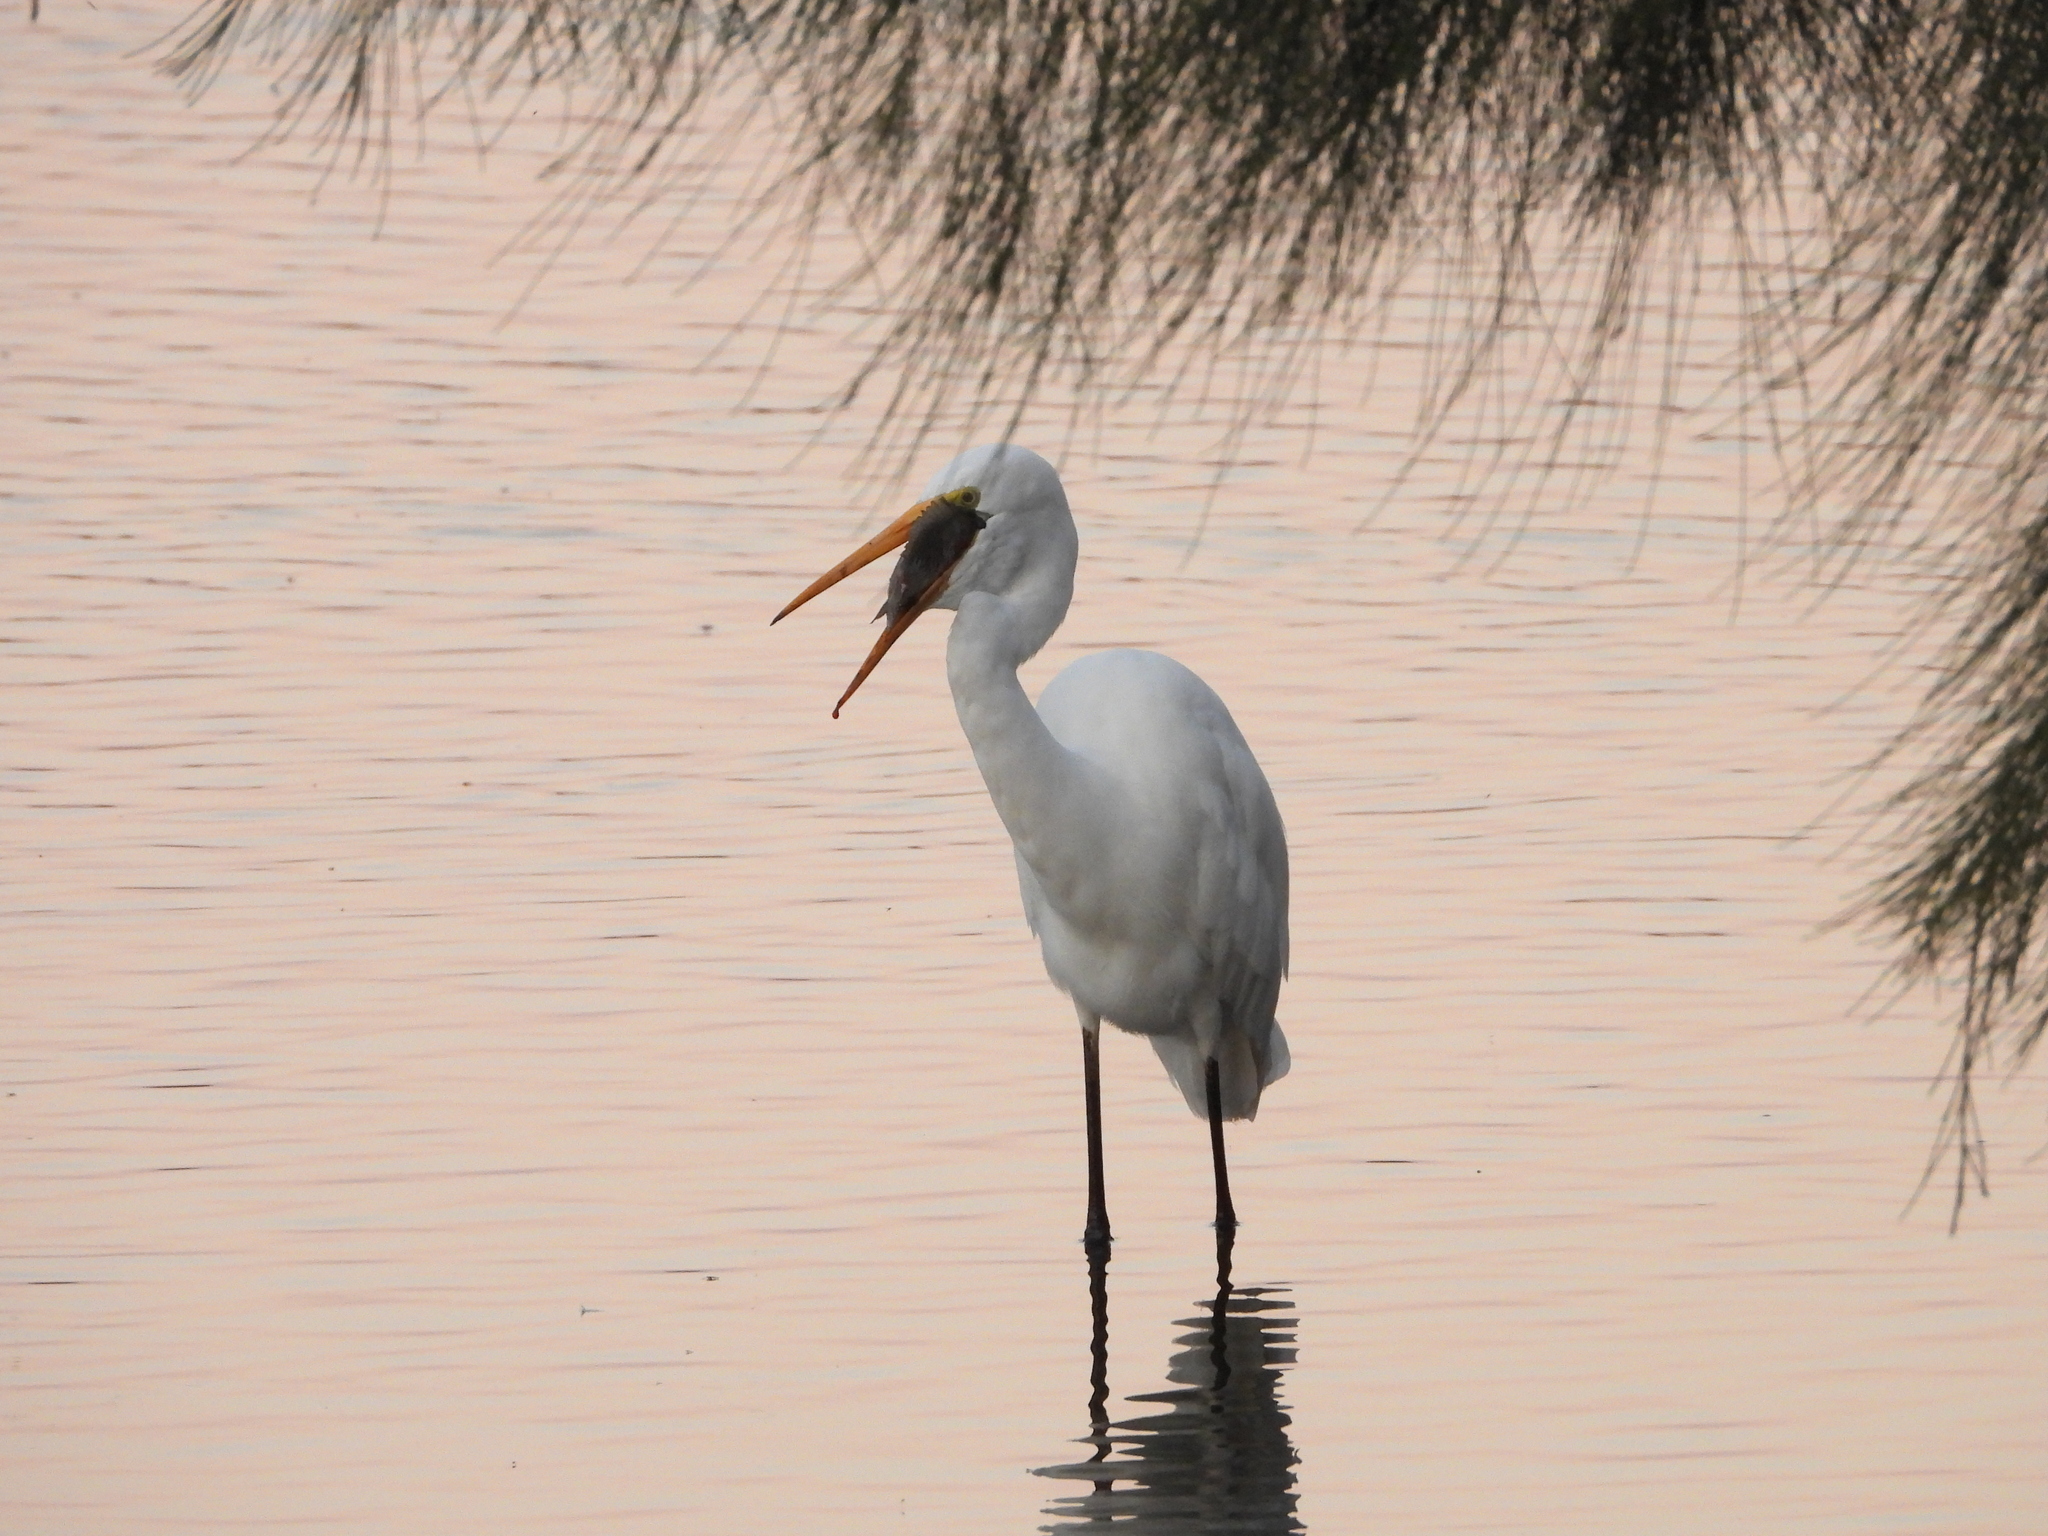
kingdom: Animalia
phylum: Chordata
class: Aves
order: Pelecaniformes
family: Ardeidae
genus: Ardea
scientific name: Ardea alba
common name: Great egret
